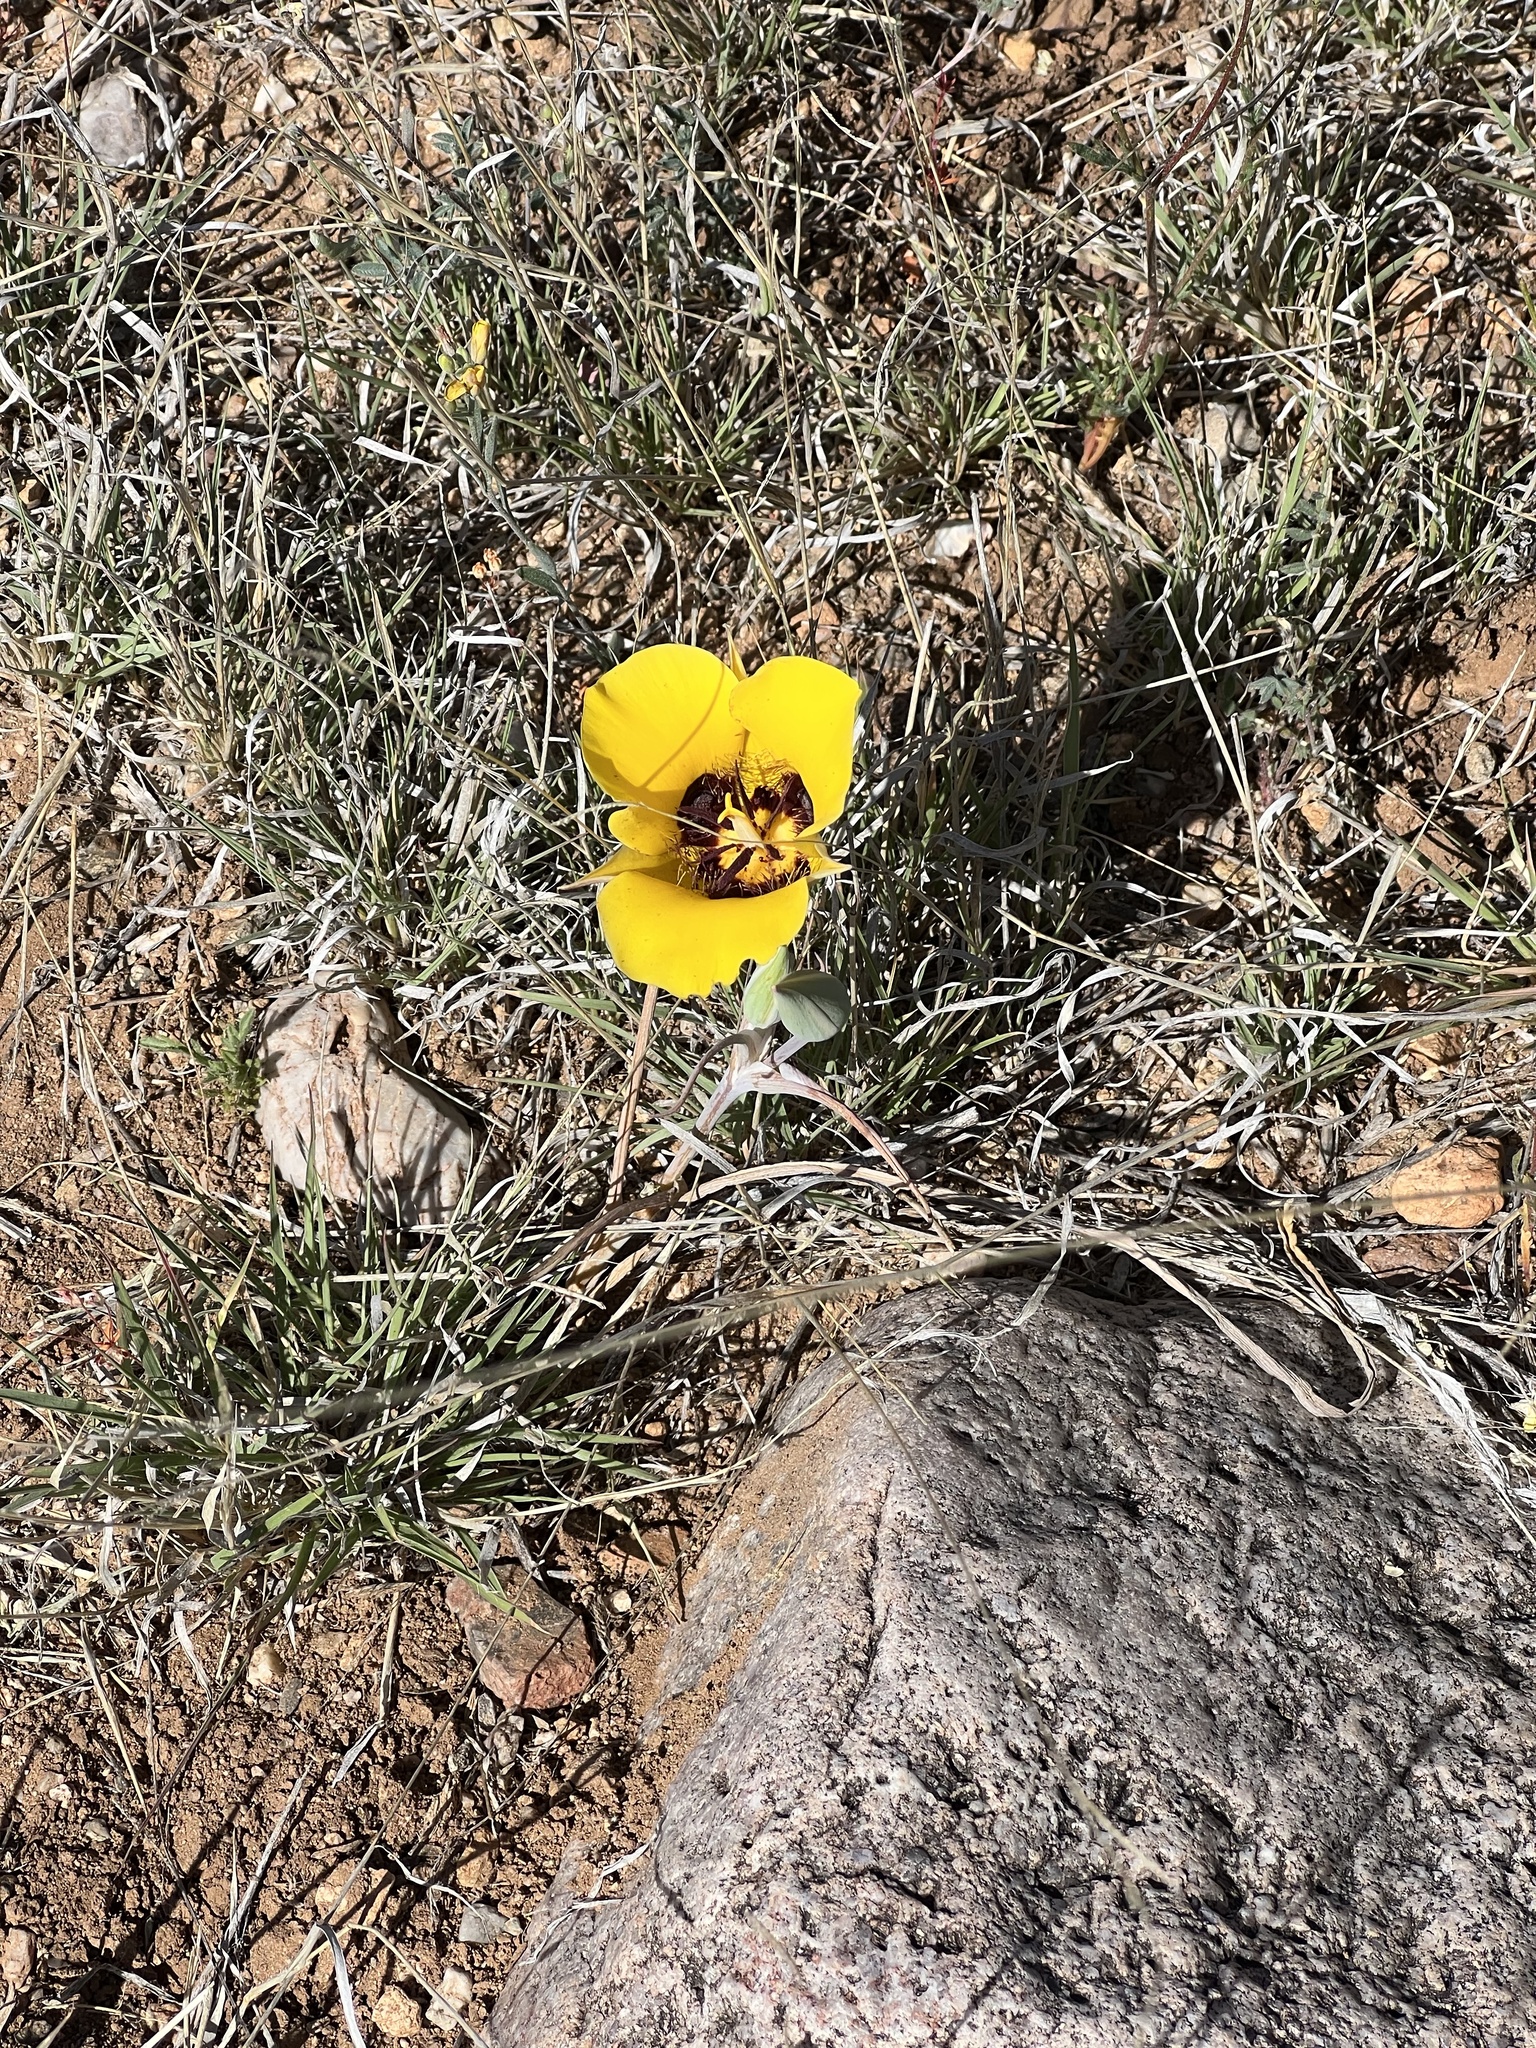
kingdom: Plantae
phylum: Tracheophyta
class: Liliopsida
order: Liliales
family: Liliaceae
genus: Calochortus
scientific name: Calochortus kennedyi
